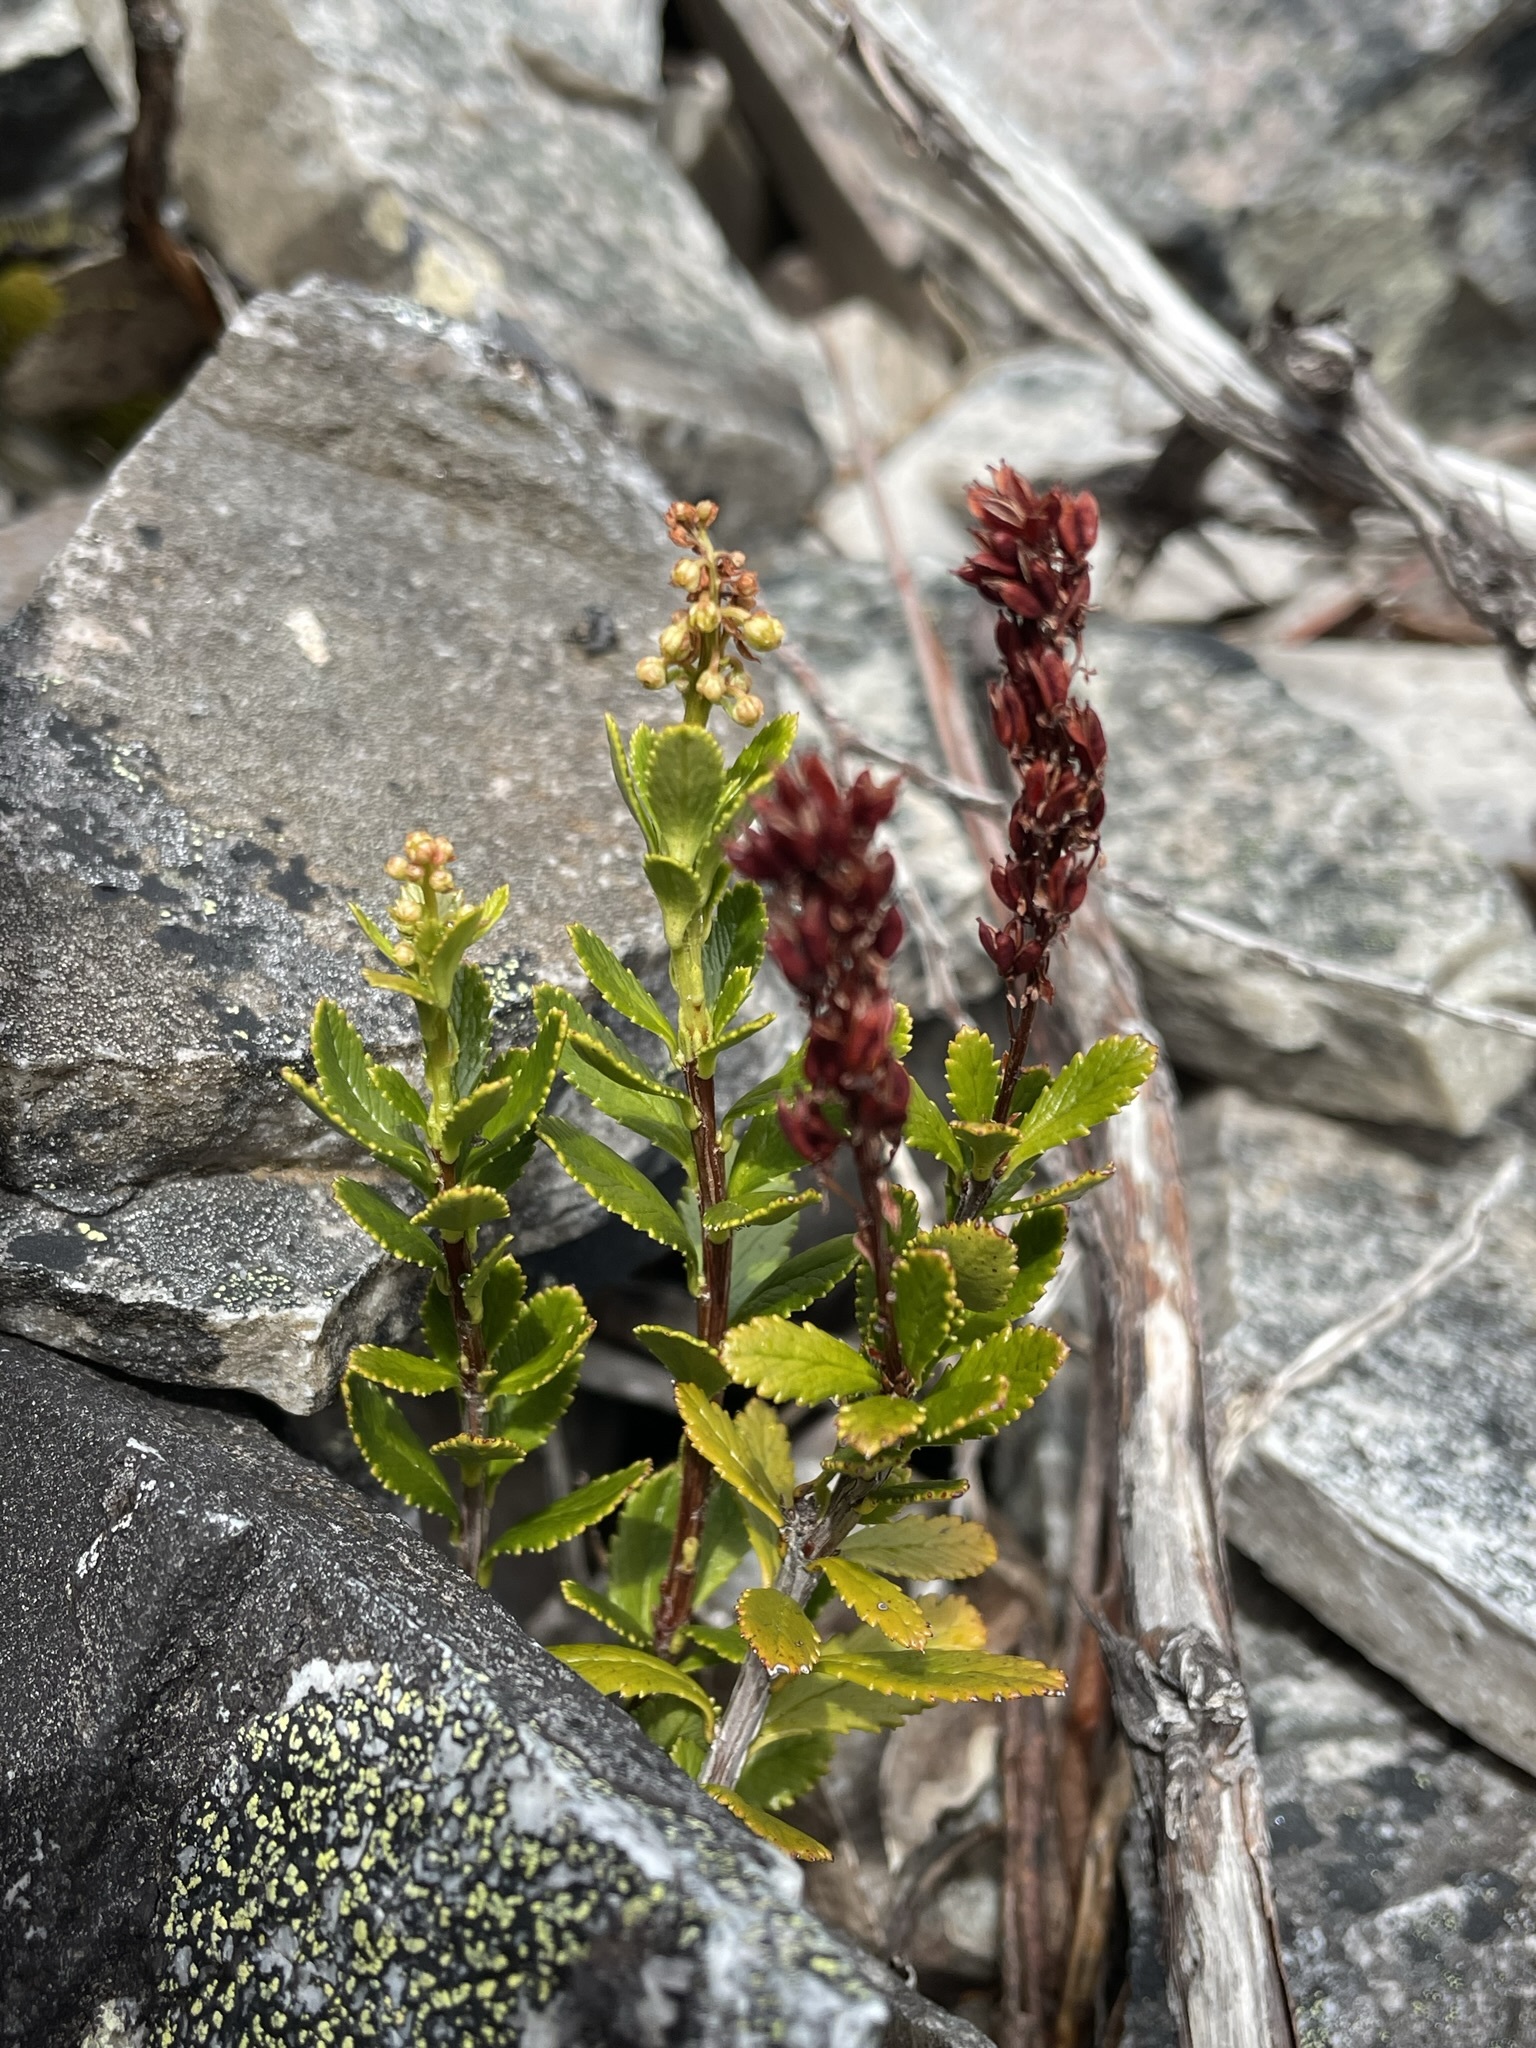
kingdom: Plantae
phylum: Tracheophyta
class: Magnoliopsida
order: Saxifragales
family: Tetracarpaeaceae
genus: Tetracarpaea
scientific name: Tetracarpaea tasmanica
